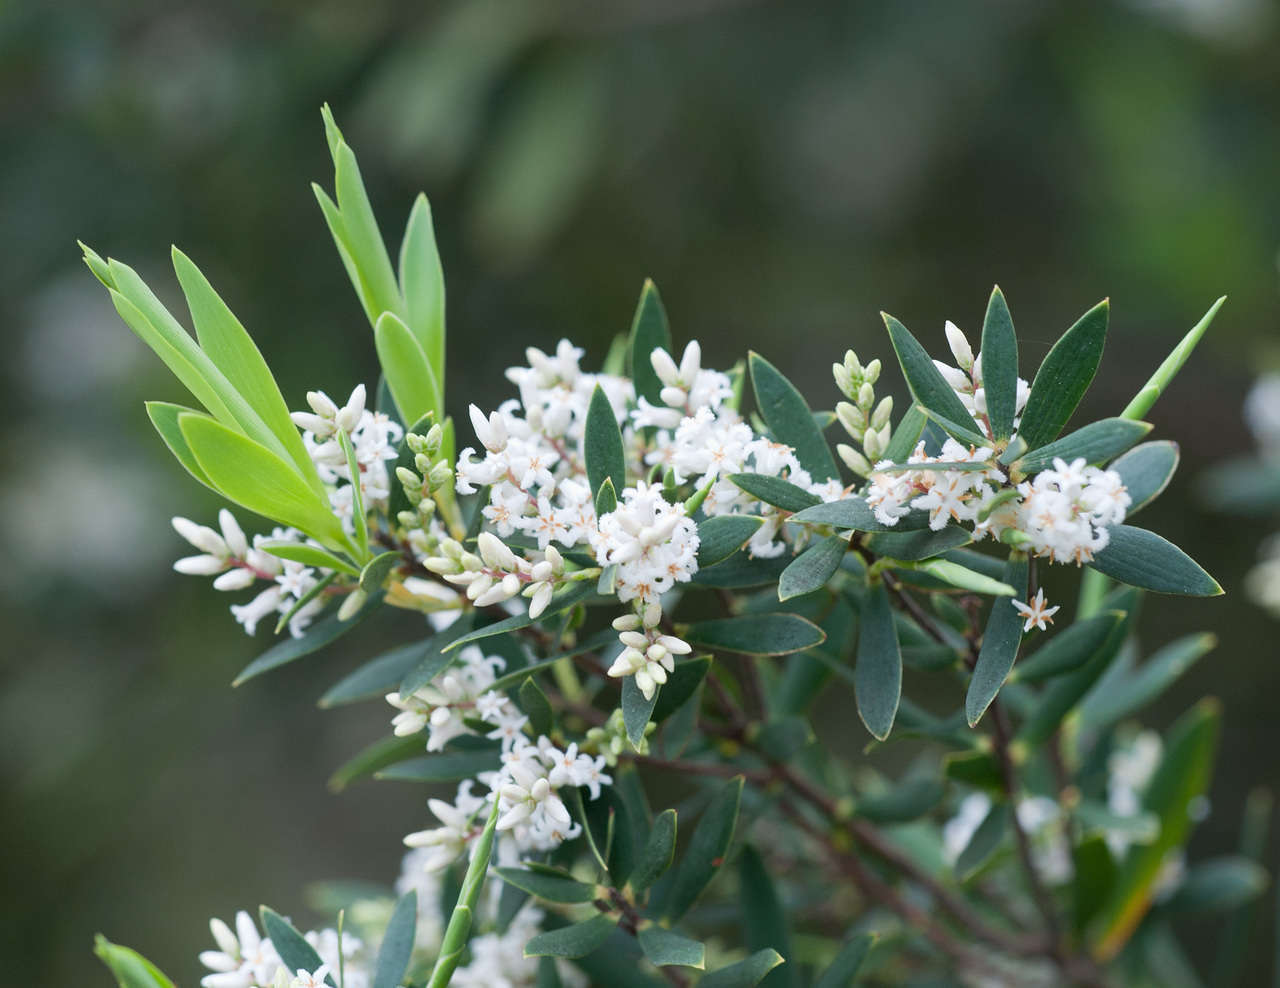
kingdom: Plantae
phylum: Tracheophyta
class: Magnoliopsida
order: Ericales
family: Ericaceae
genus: Leptecophylla
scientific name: Leptecophylla parvifolia
